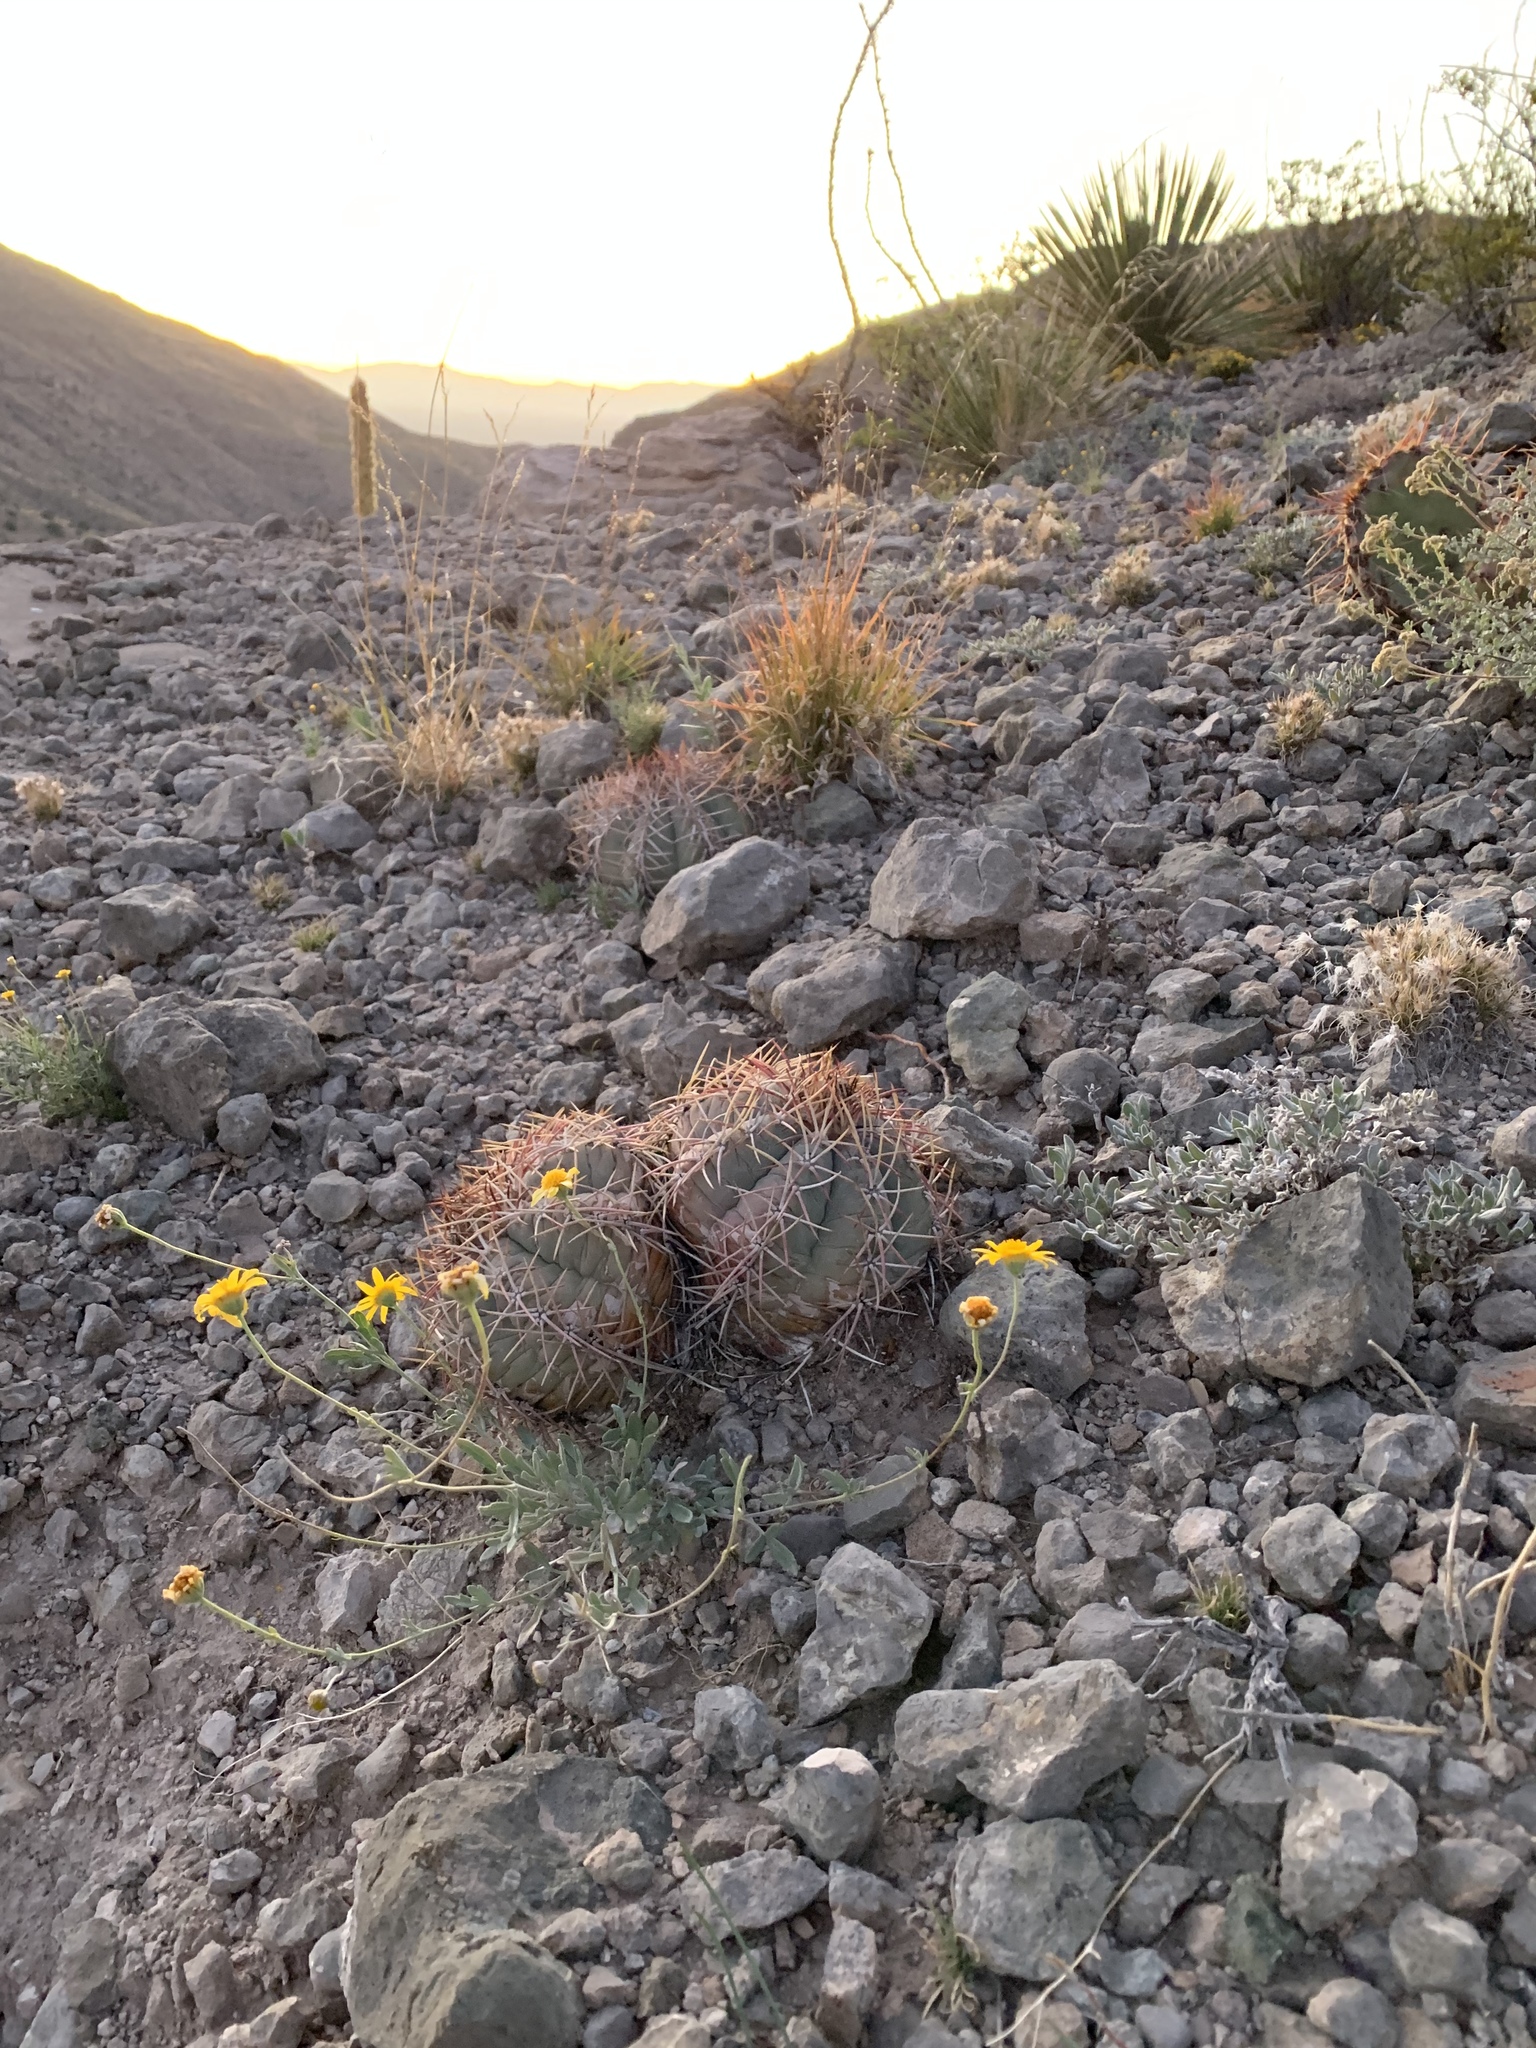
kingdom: Plantae
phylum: Tracheophyta
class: Magnoliopsida
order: Caryophyllales
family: Cactaceae
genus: Echinocactus
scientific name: Echinocactus horizonthalonius
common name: Devilshead
